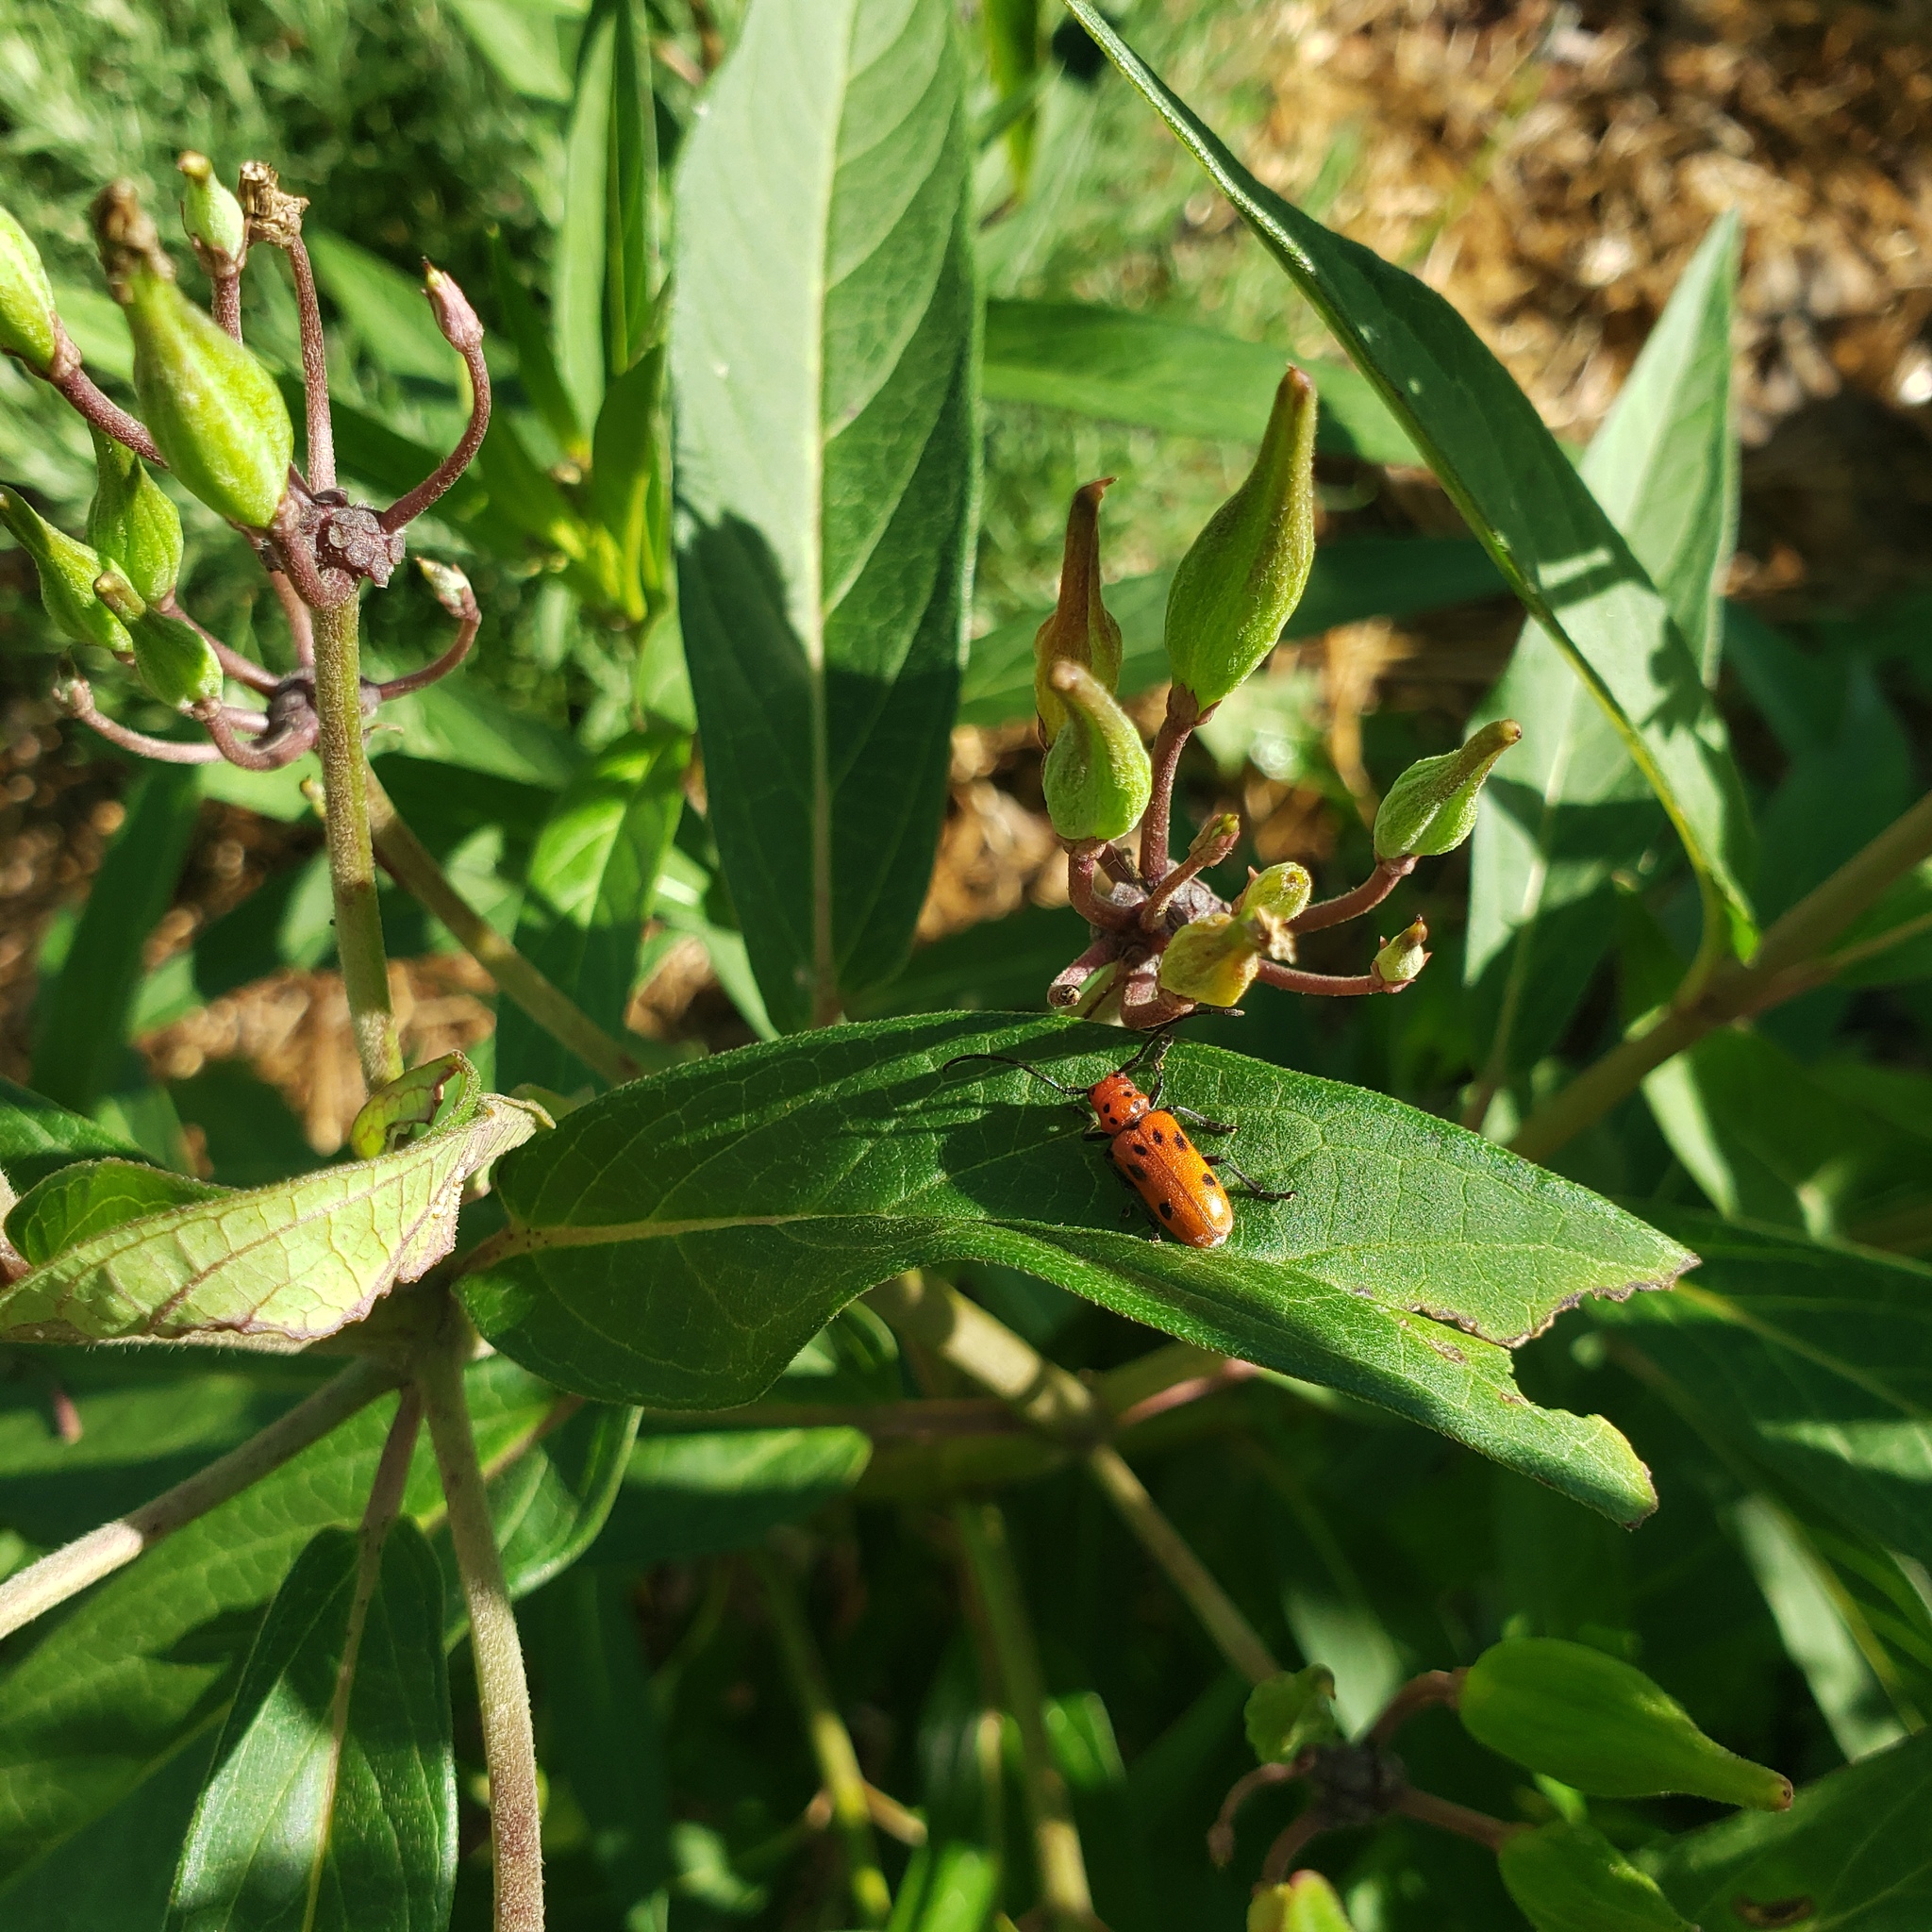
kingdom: Animalia
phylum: Arthropoda
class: Insecta
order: Coleoptera
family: Cerambycidae
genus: Tetraopes
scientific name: Tetraopes tetrophthalmus
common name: Red milkweed beetle
